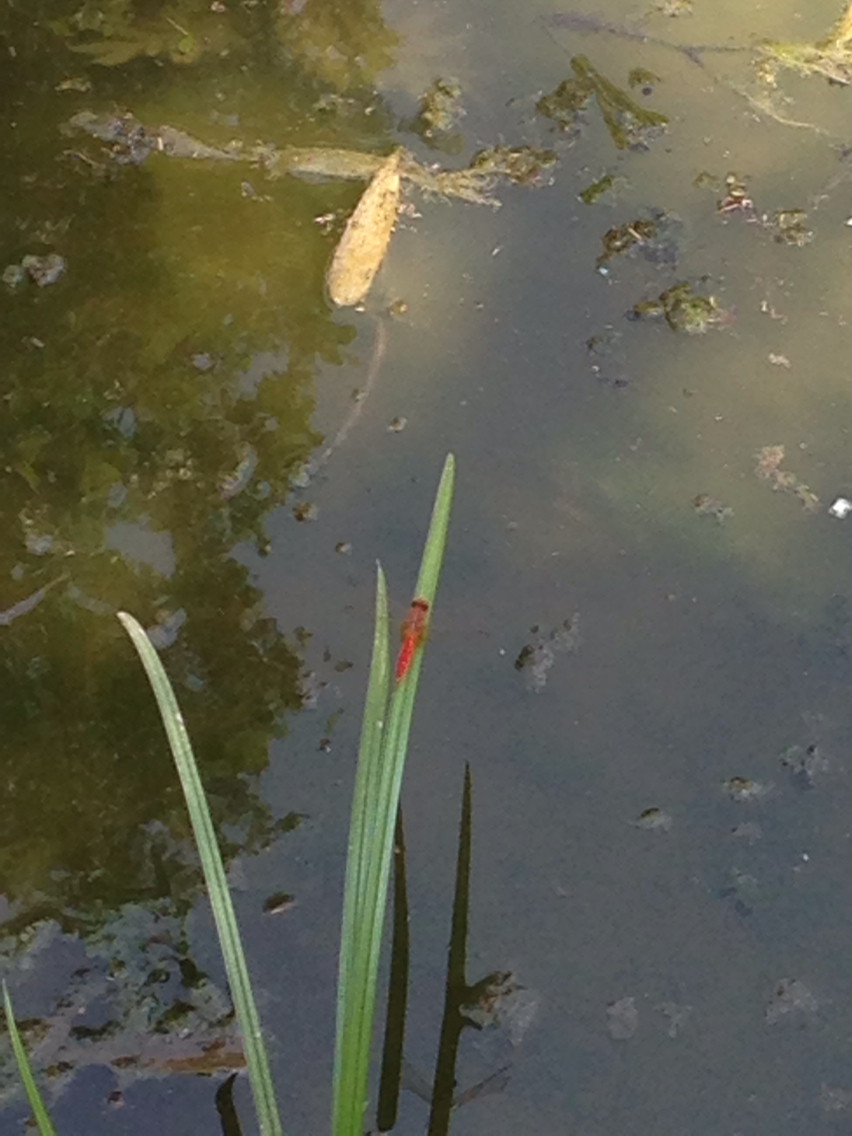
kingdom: Animalia
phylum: Arthropoda
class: Insecta
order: Odonata
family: Libellulidae
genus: Crocothemis
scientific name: Crocothemis servilia
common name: Scarlet skimmer
